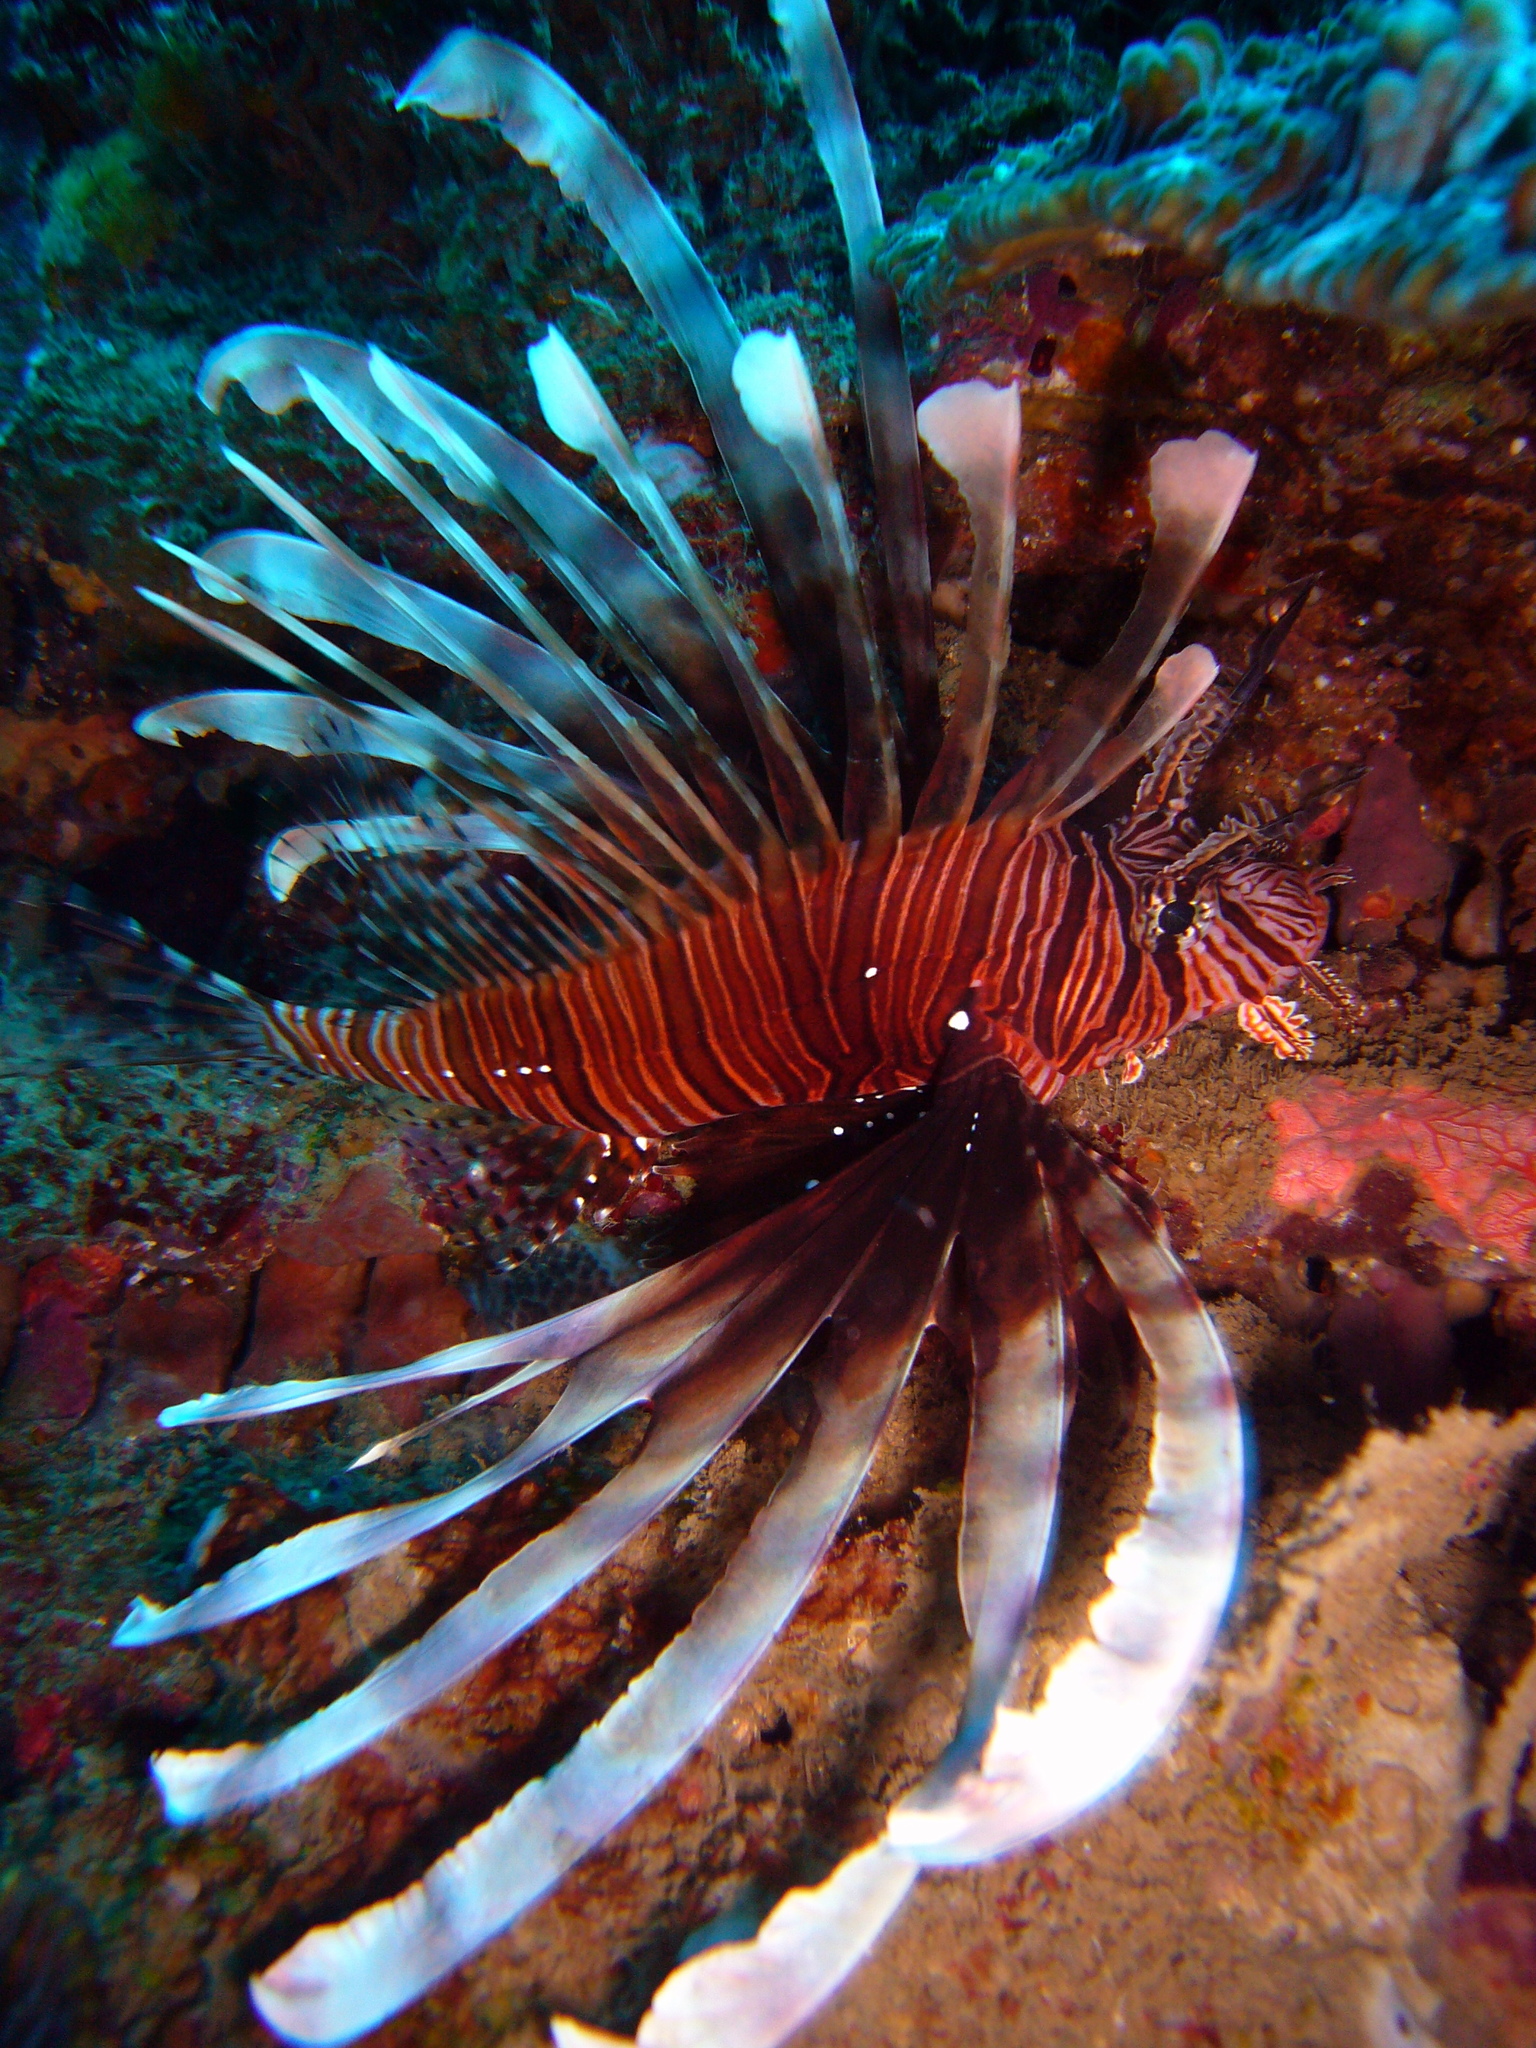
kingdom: Animalia
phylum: Chordata
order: Scorpaeniformes
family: Scorpaenidae
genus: Pterois
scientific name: Pterois volitans
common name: Lionfish
